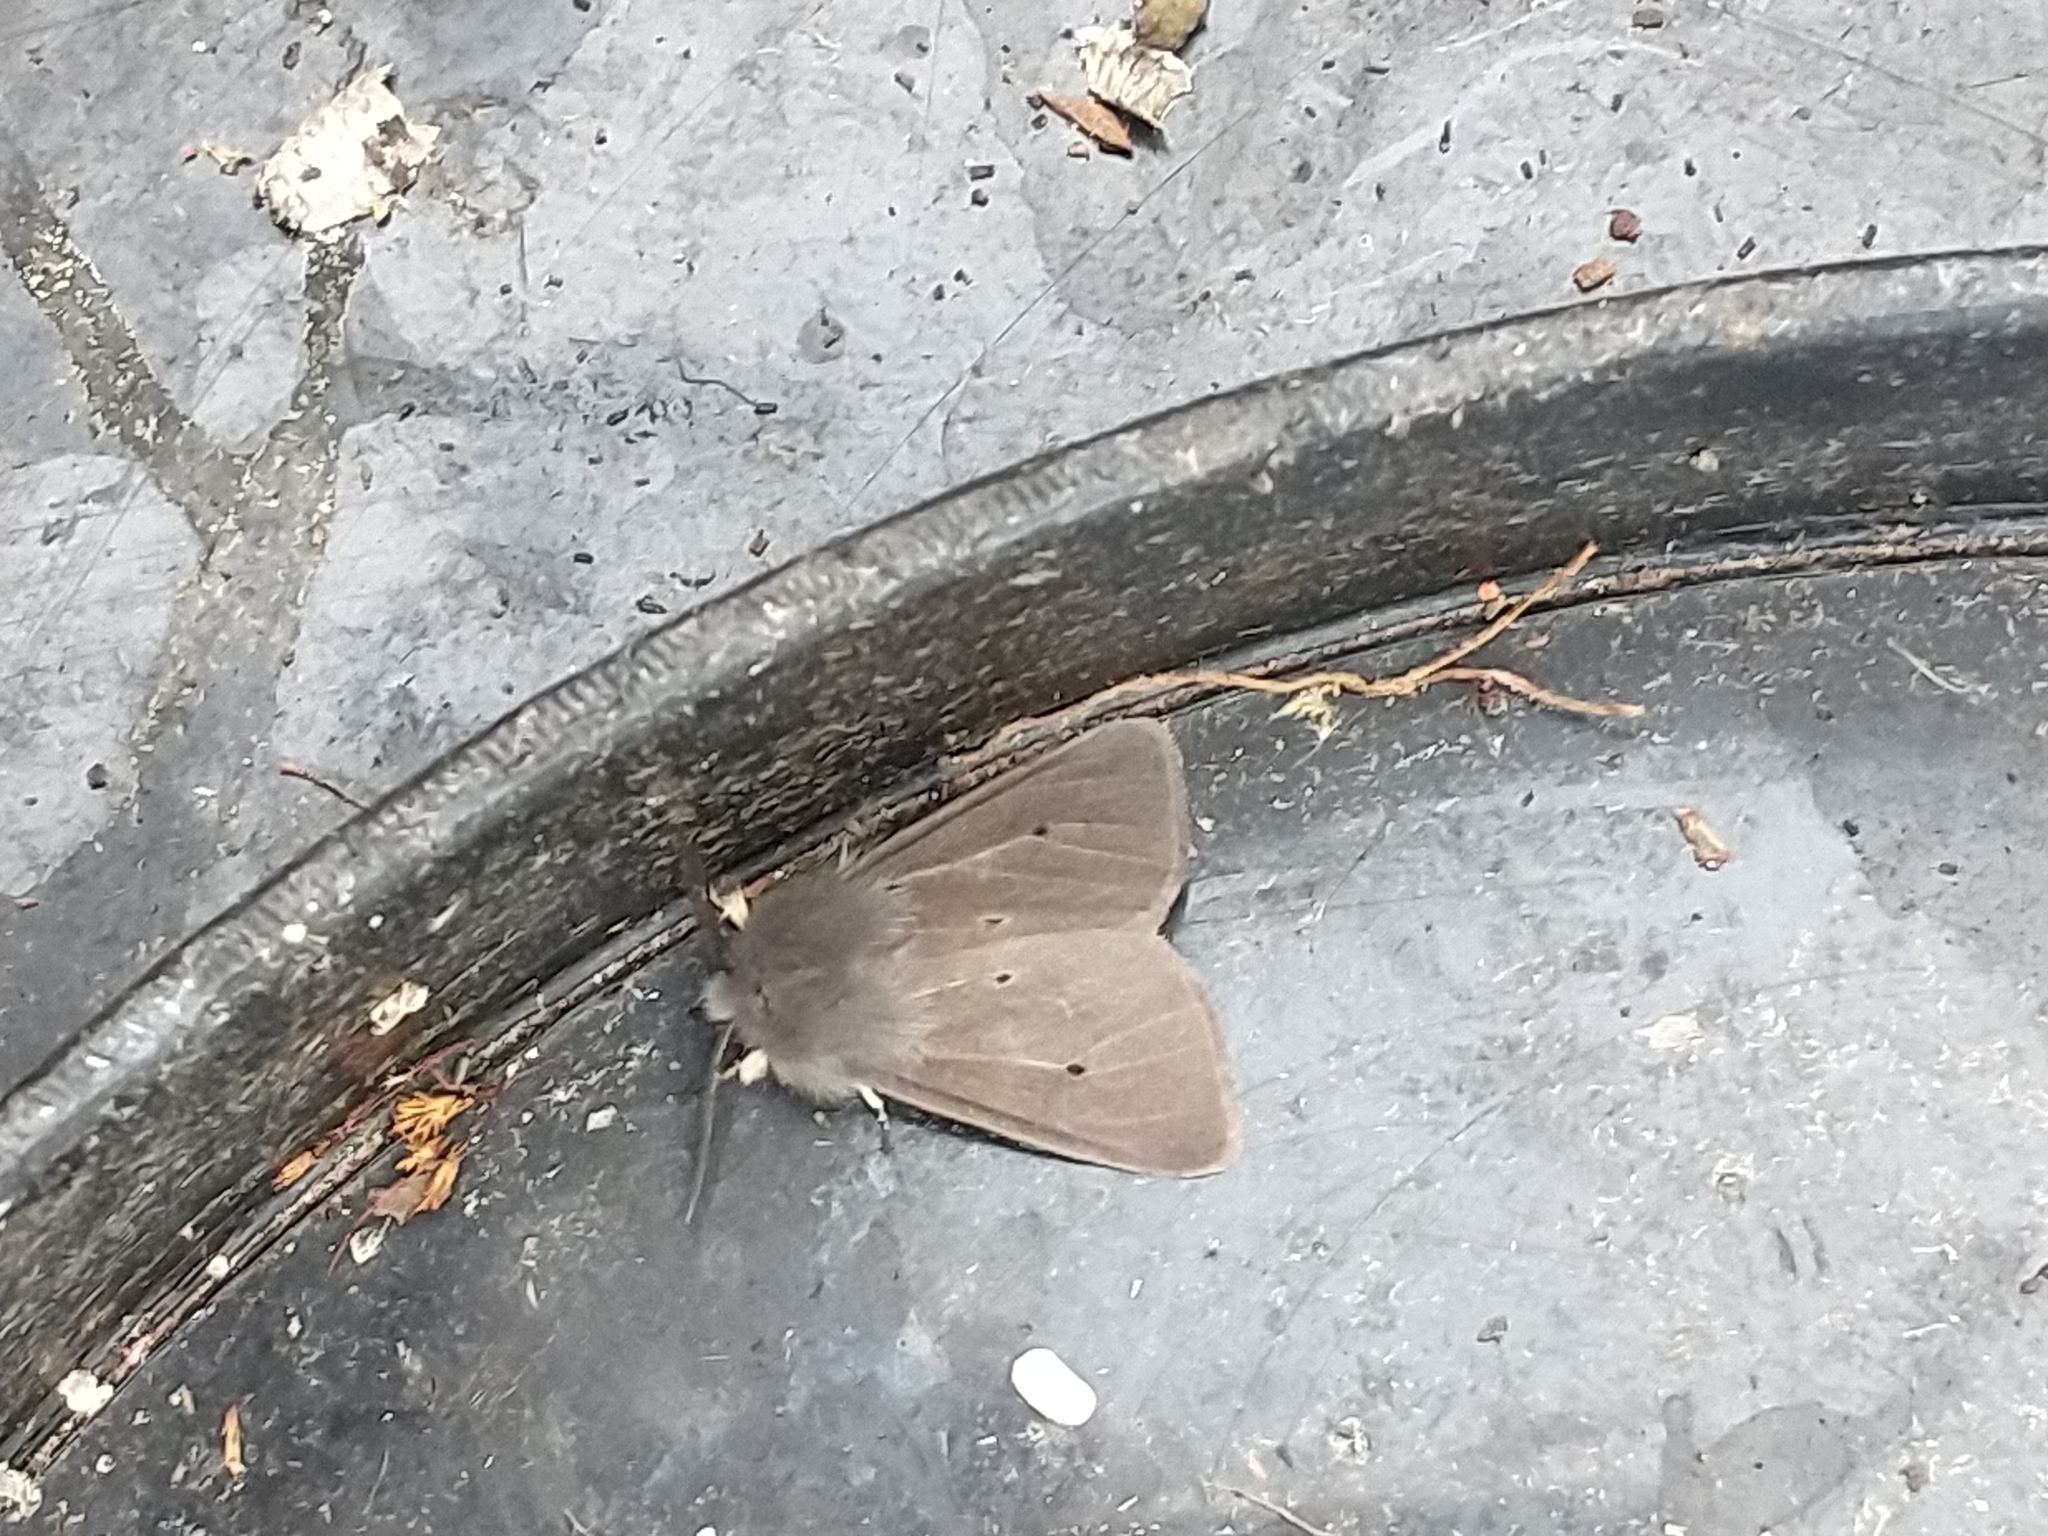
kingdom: Animalia
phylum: Arthropoda
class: Insecta
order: Lepidoptera
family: Erebidae
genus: Diaphora
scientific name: Diaphora mendica
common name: Muslin moth
